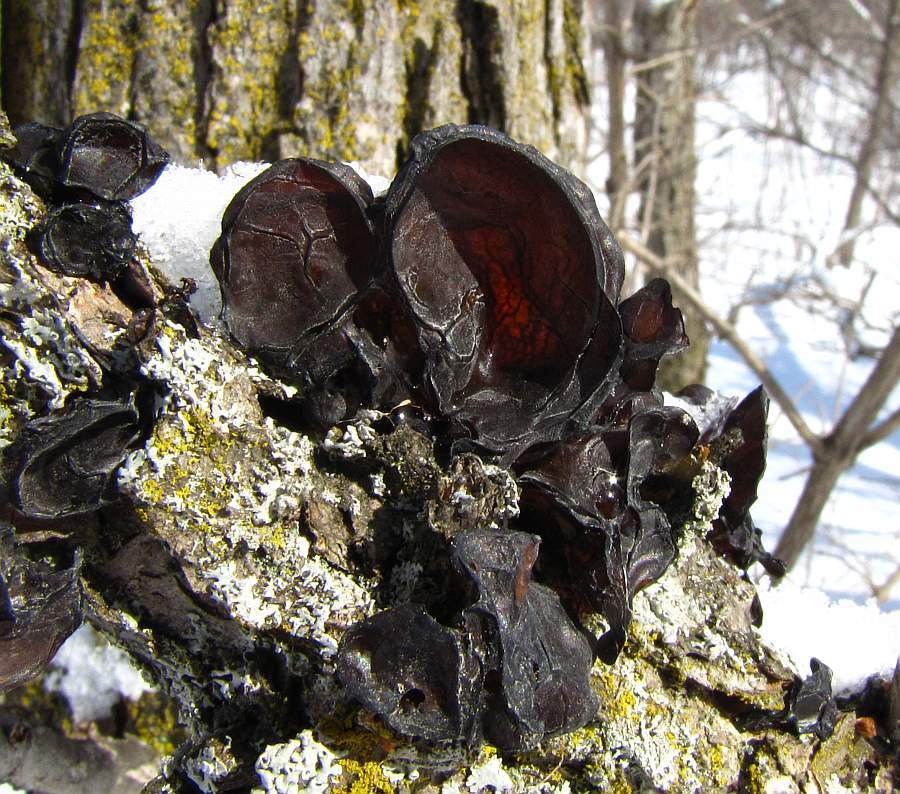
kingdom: Fungi
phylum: Basidiomycota
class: Agaricomycetes
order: Auriculariales
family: Auriculariaceae
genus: Exidia
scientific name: Exidia
